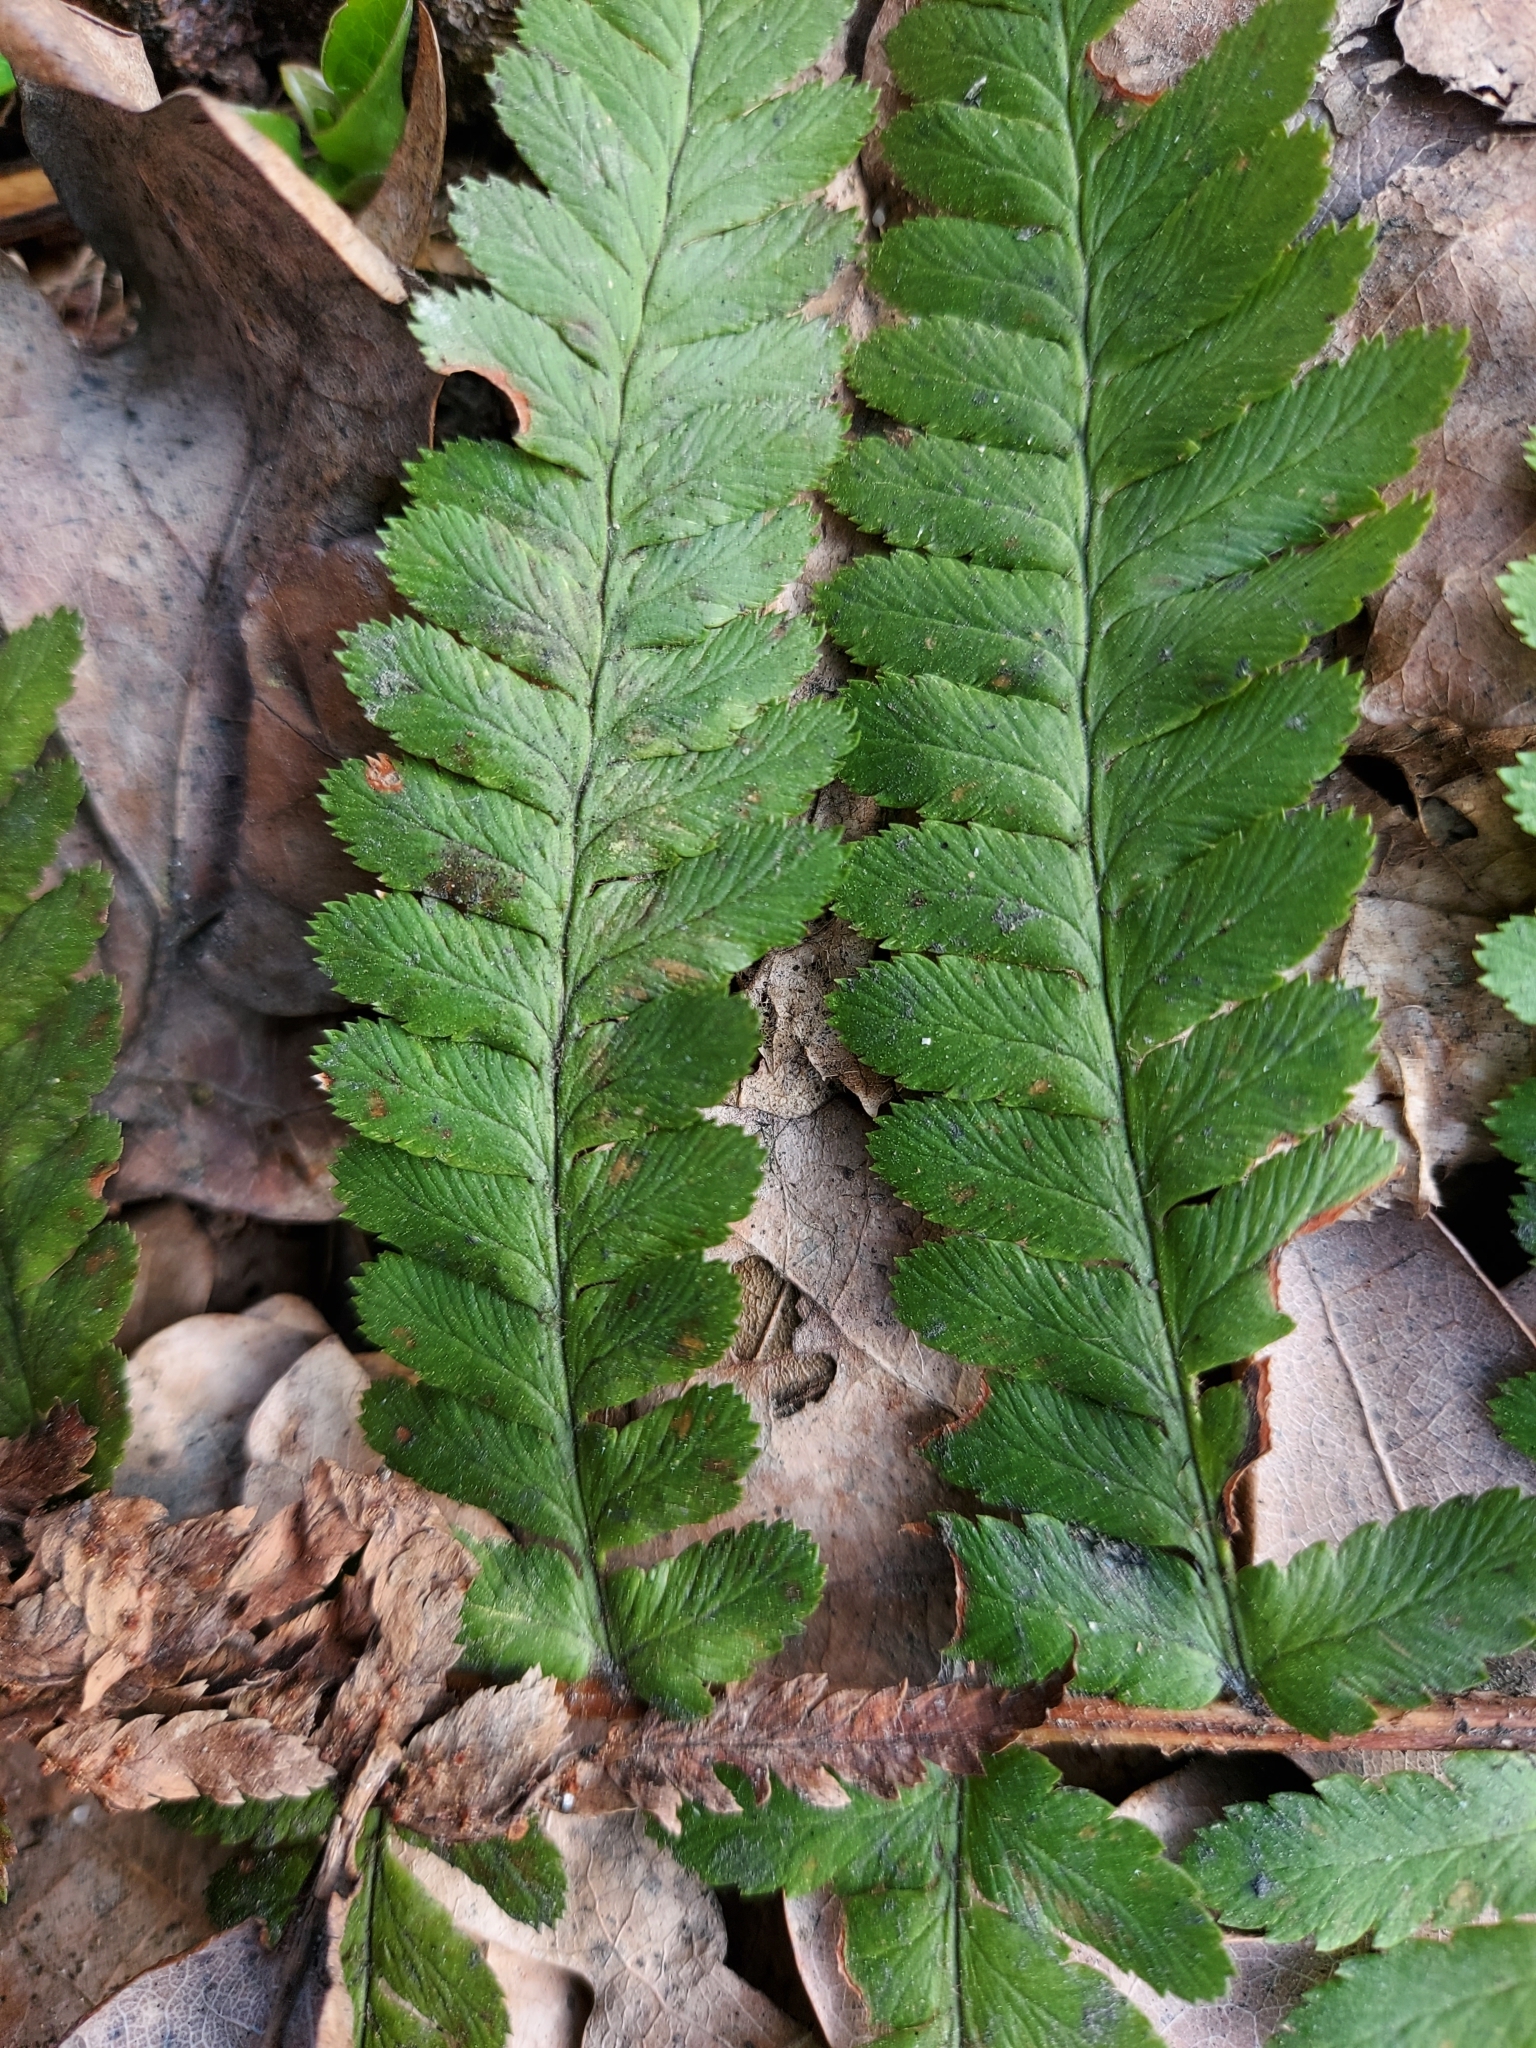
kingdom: Plantae
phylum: Tracheophyta
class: Polypodiopsida
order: Polypodiales
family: Dryopteridaceae
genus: Dryopteris
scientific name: Dryopteris filix-mas
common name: Male fern
